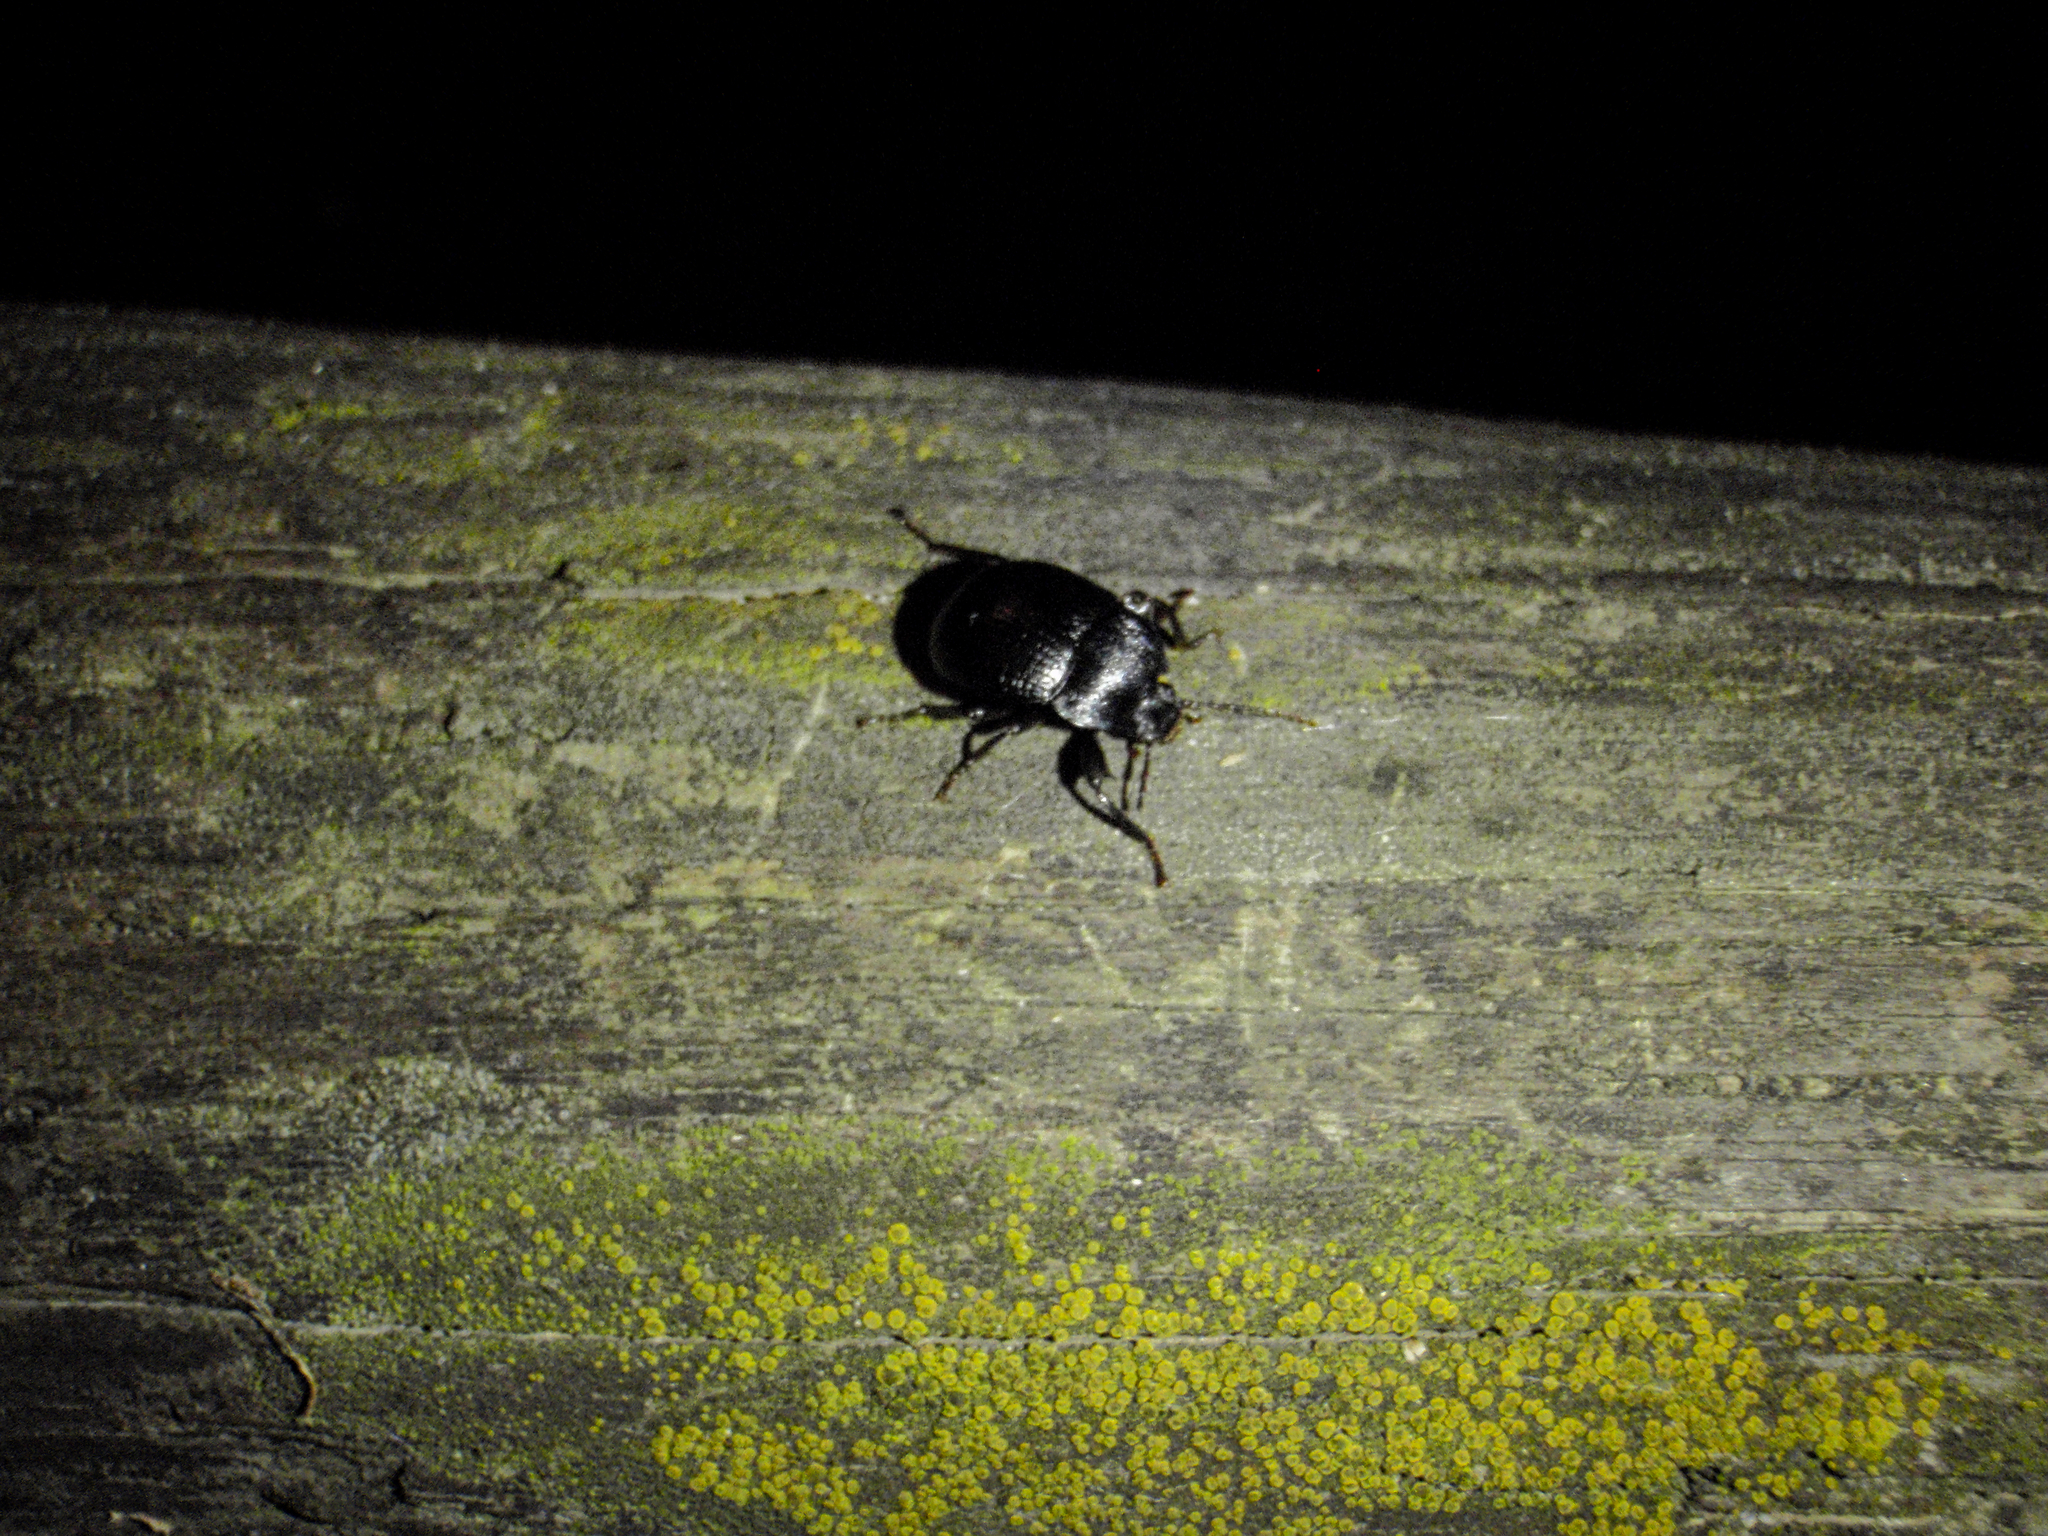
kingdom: Animalia
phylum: Arthropoda
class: Insecta
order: Coleoptera
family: Tenebrionidae
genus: Accanthopus
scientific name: Accanthopus velikensis
